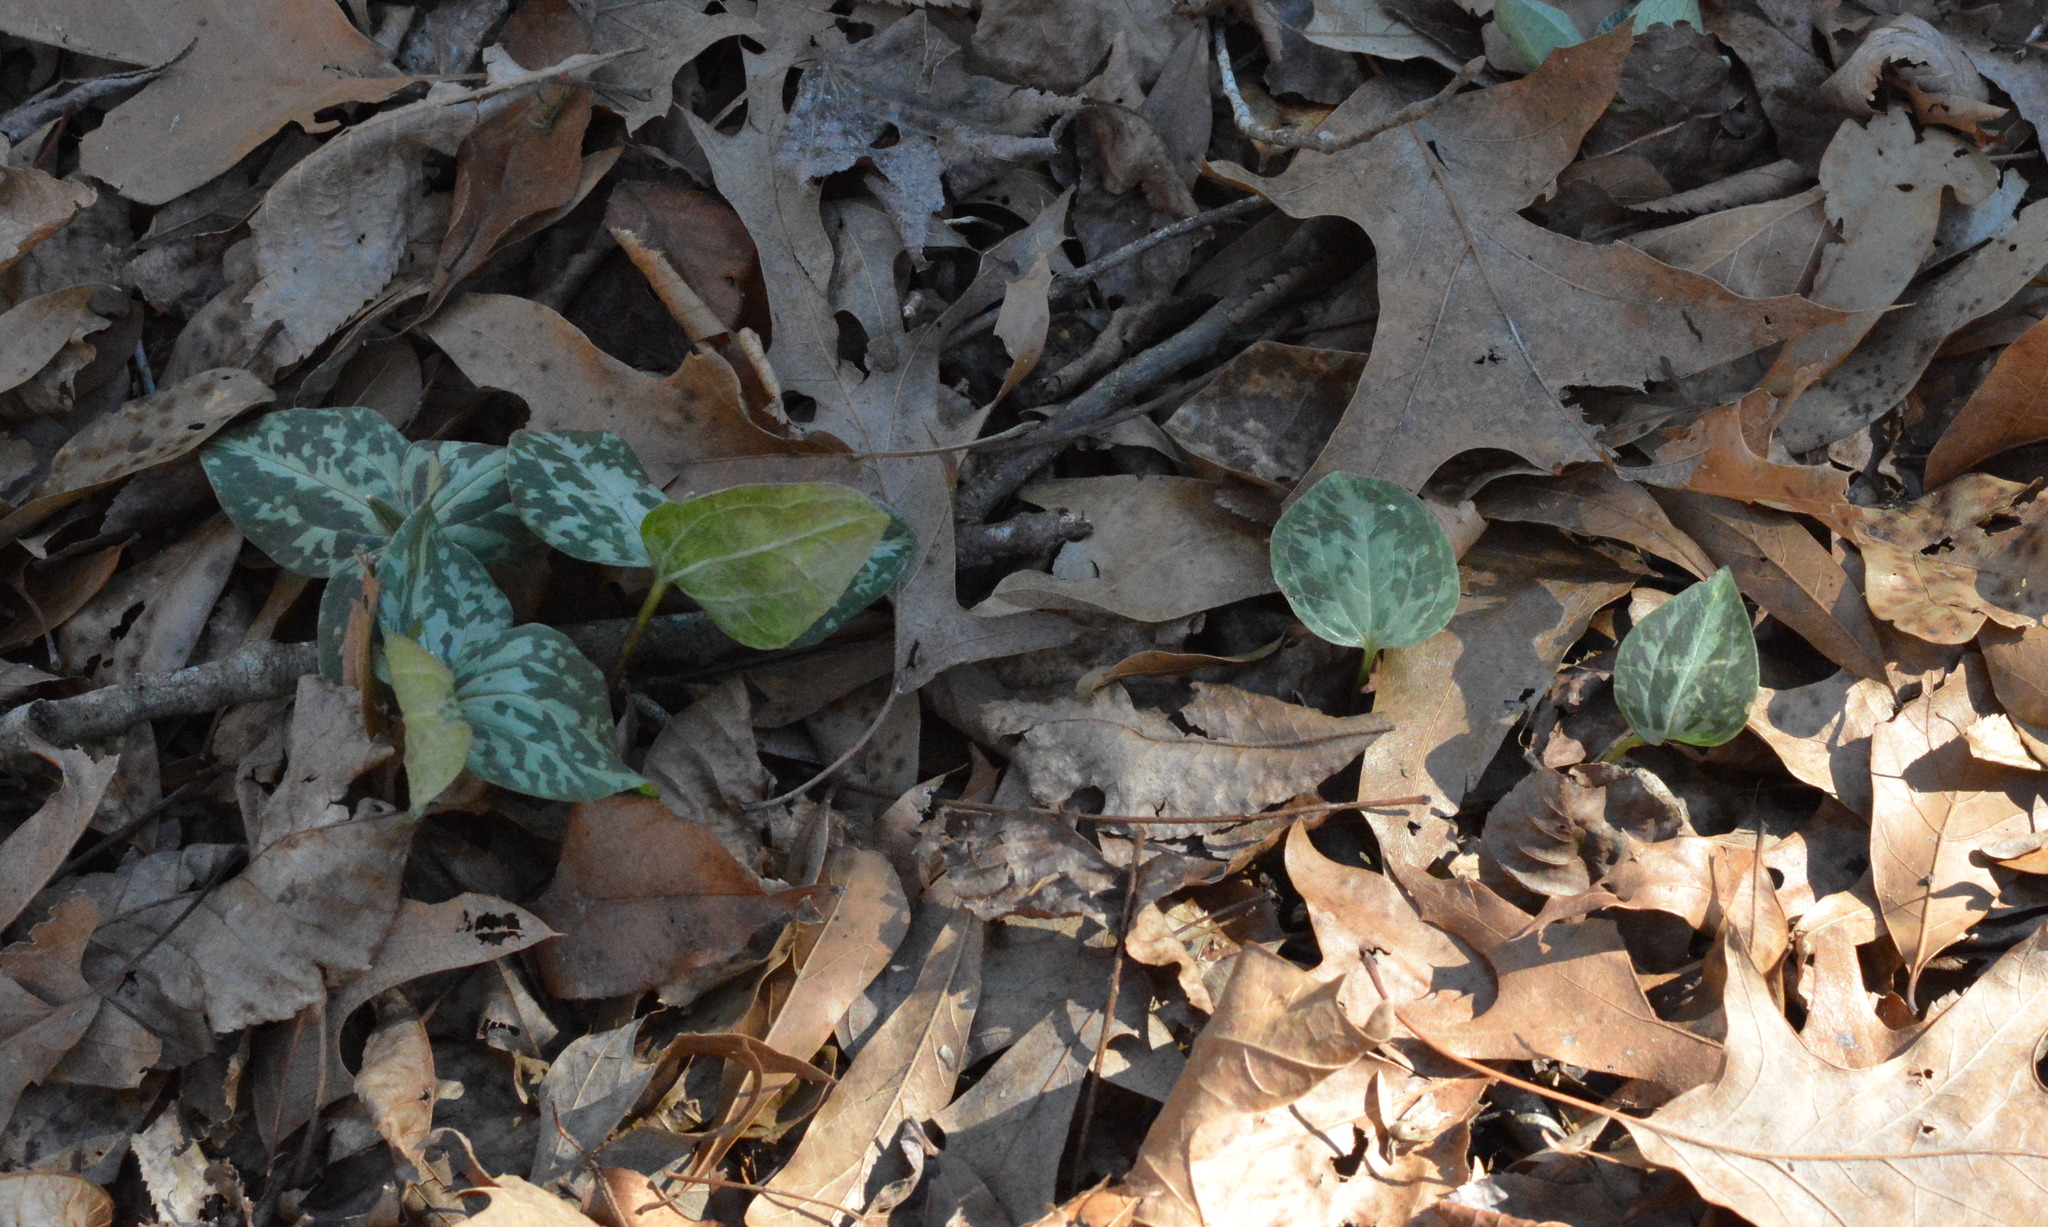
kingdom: Plantae
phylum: Tracheophyta
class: Liliopsida
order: Liliales
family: Melanthiaceae
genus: Trillium
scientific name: Trillium foetidissimum
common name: Mississippi river trillium
